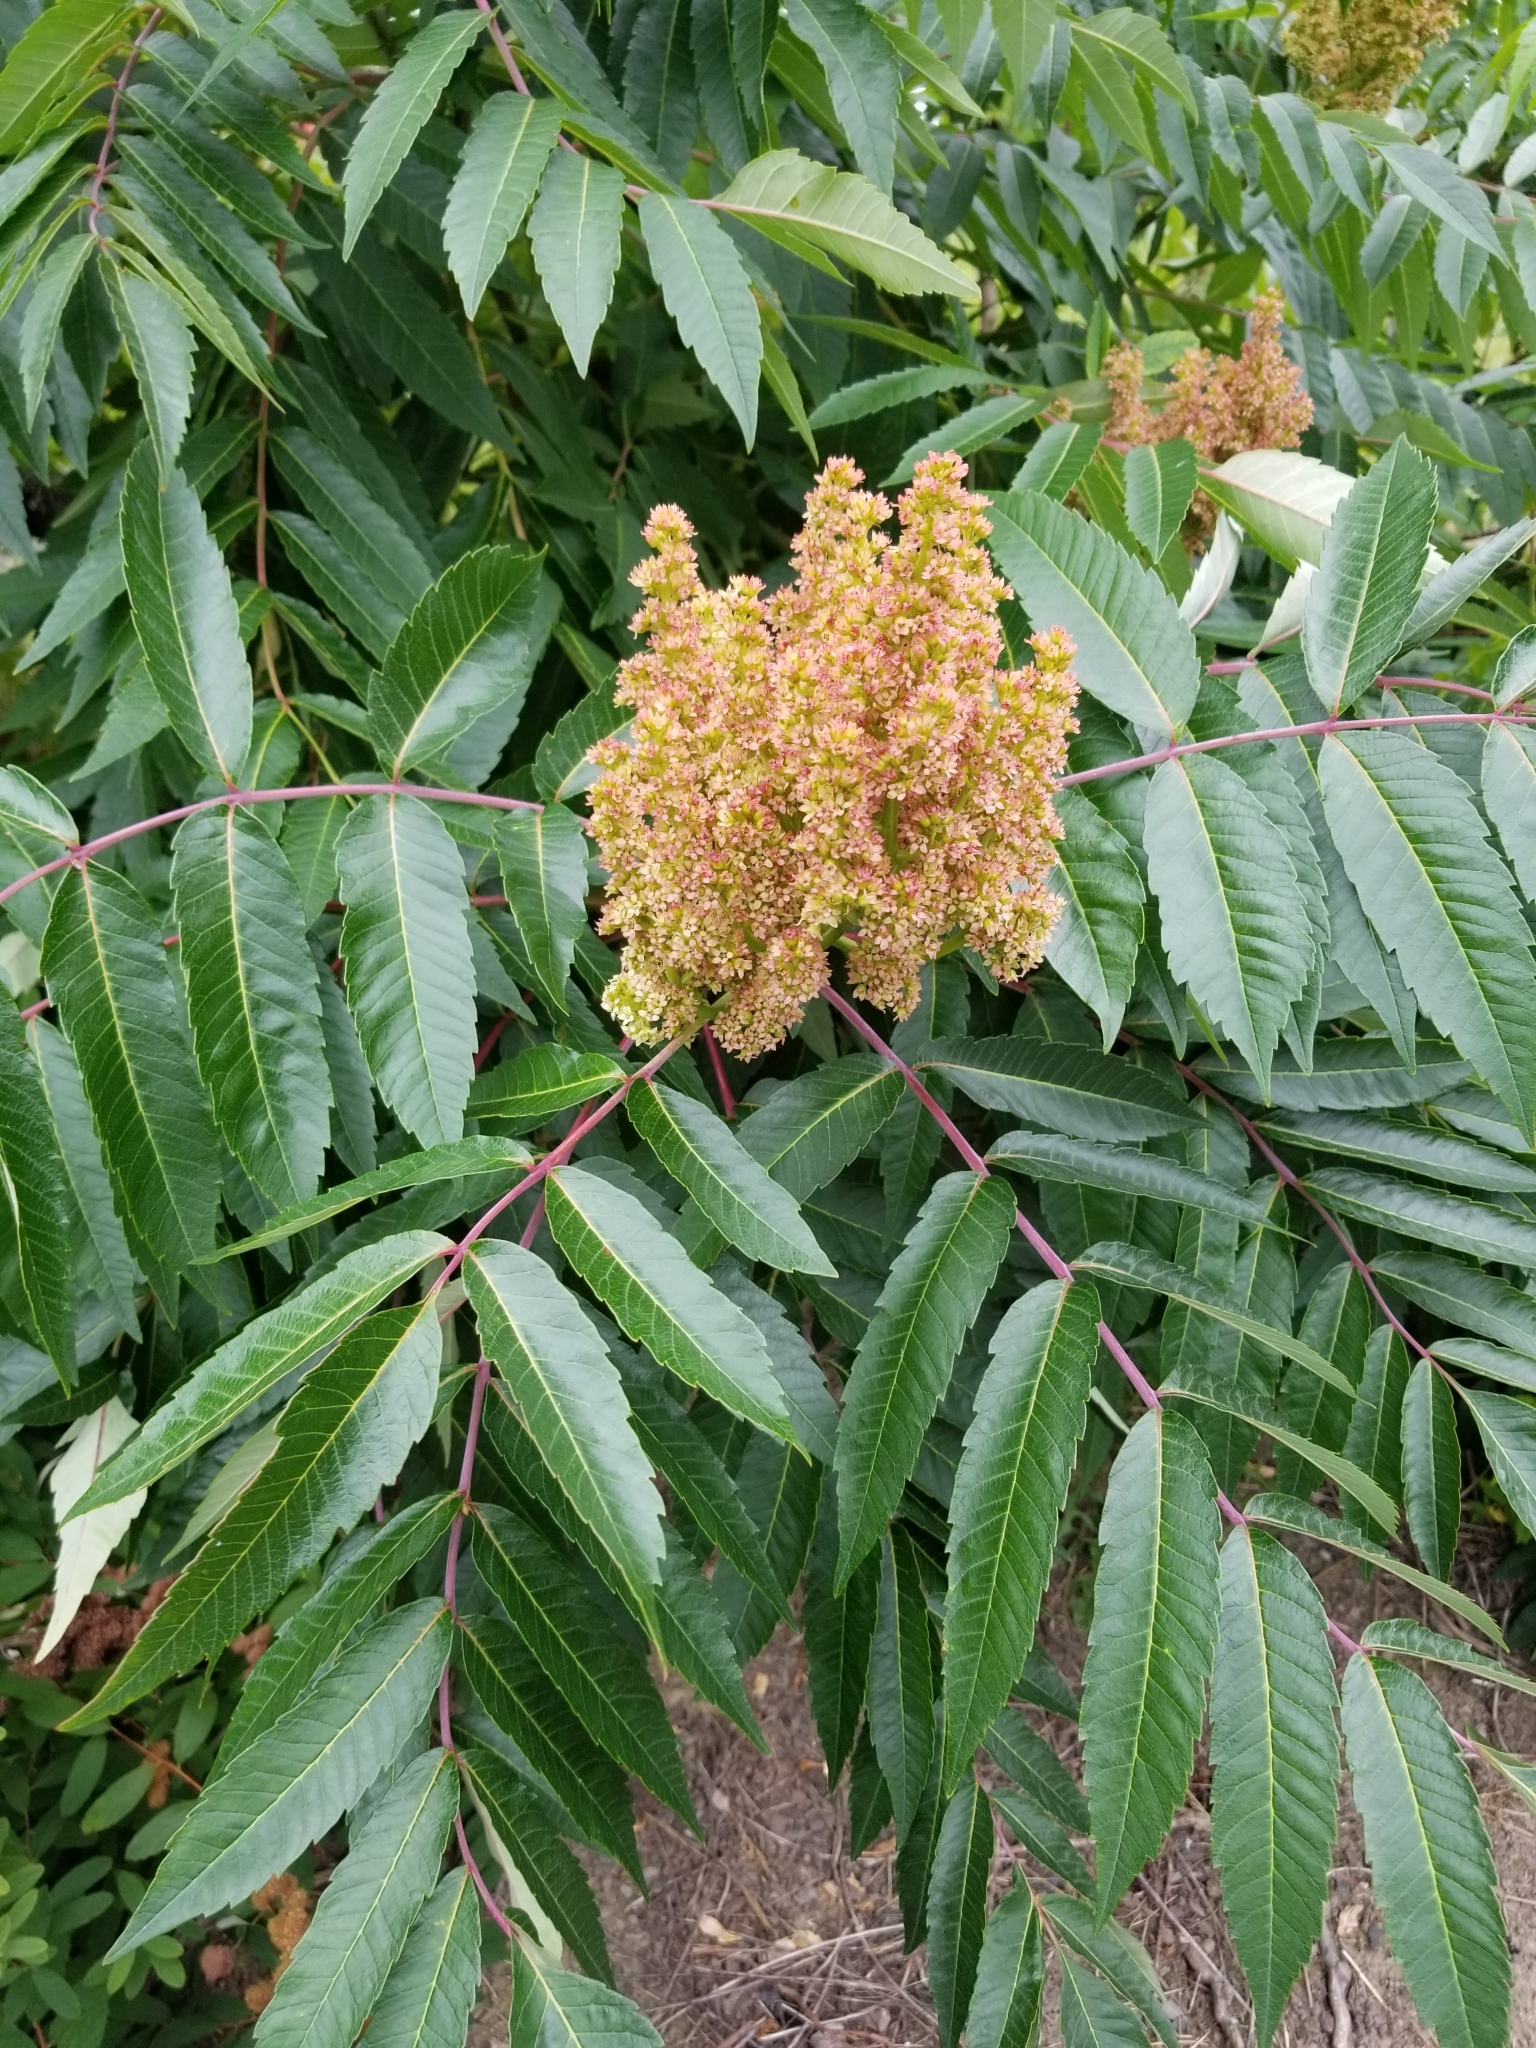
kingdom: Plantae
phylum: Tracheophyta
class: Magnoliopsida
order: Sapindales
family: Anacardiaceae
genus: Rhus
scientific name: Rhus glabra
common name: Scarlet sumac
